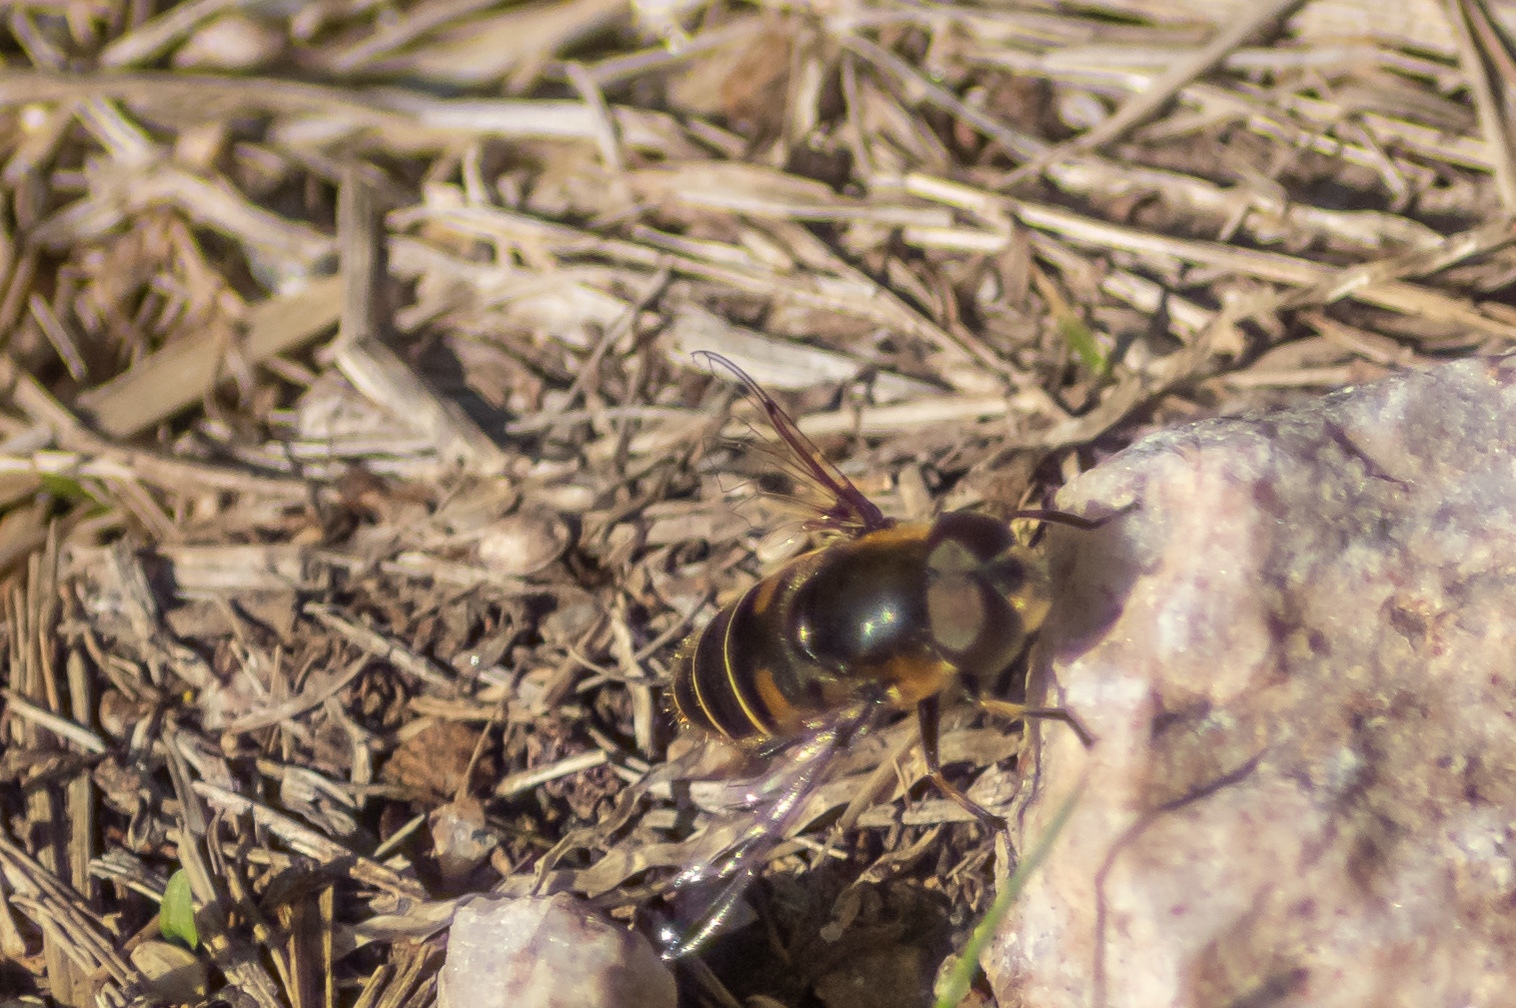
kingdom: Animalia
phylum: Arthropoda
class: Insecta
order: Diptera
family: Syrphidae
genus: Eristalis
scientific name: Eristalis dimidiata
